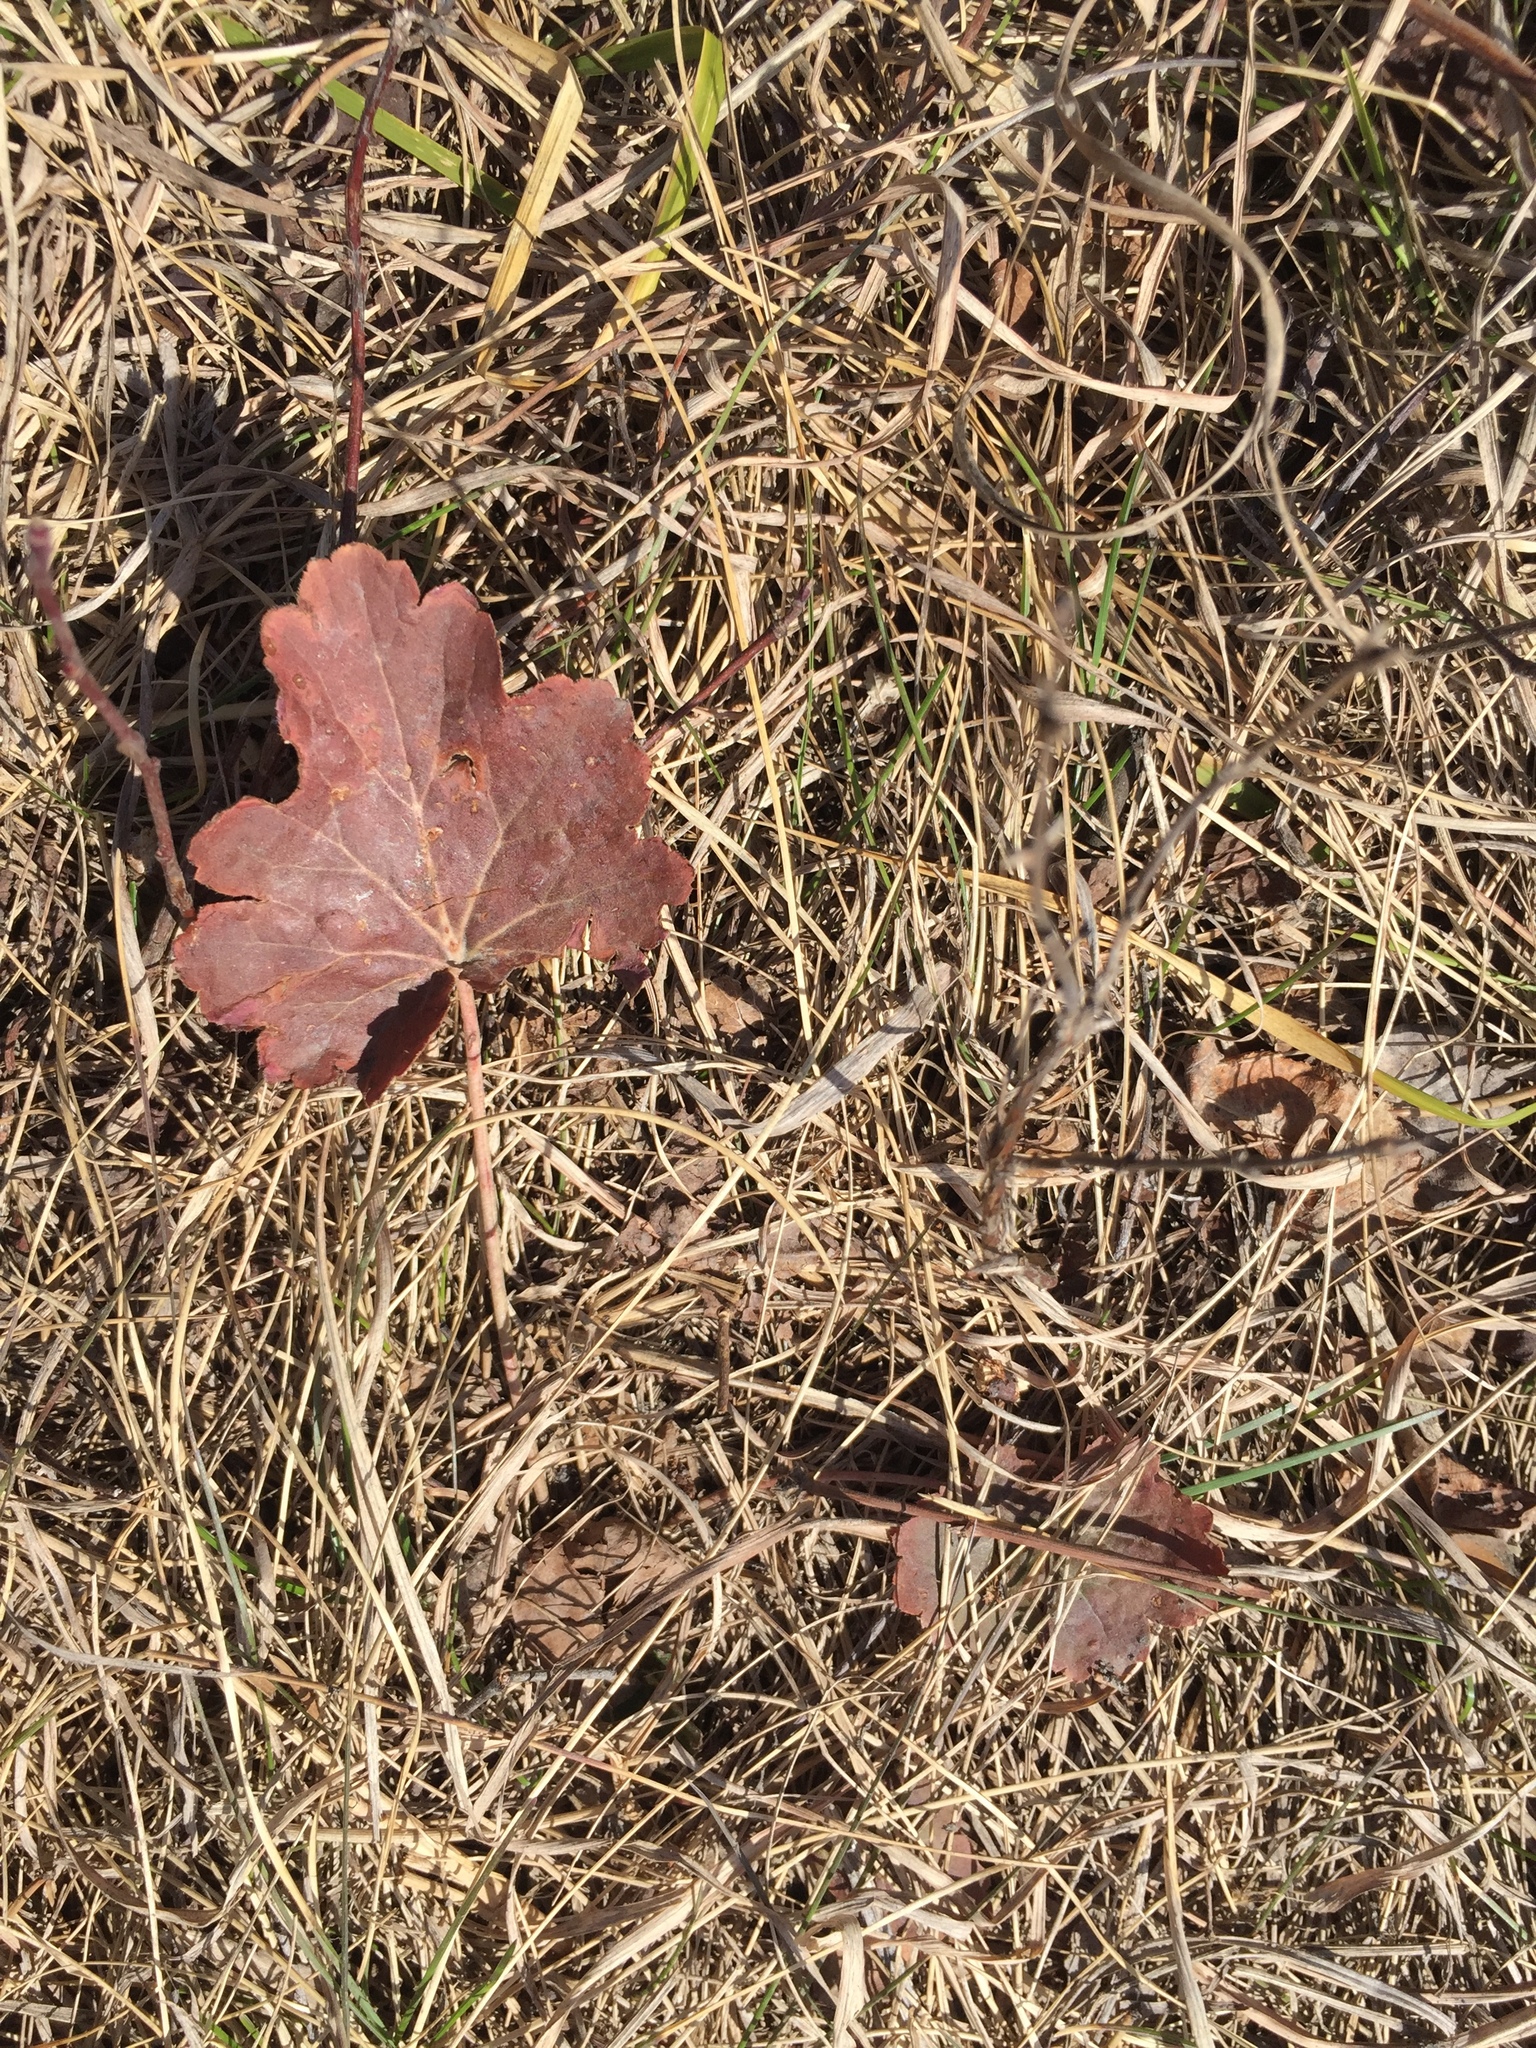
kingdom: Plantae
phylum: Tracheophyta
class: Magnoliopsida
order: Saxifragales
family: Saxifragaceae
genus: Heuchera
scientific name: Heuchera richardsonii
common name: Richardson's alumroot
